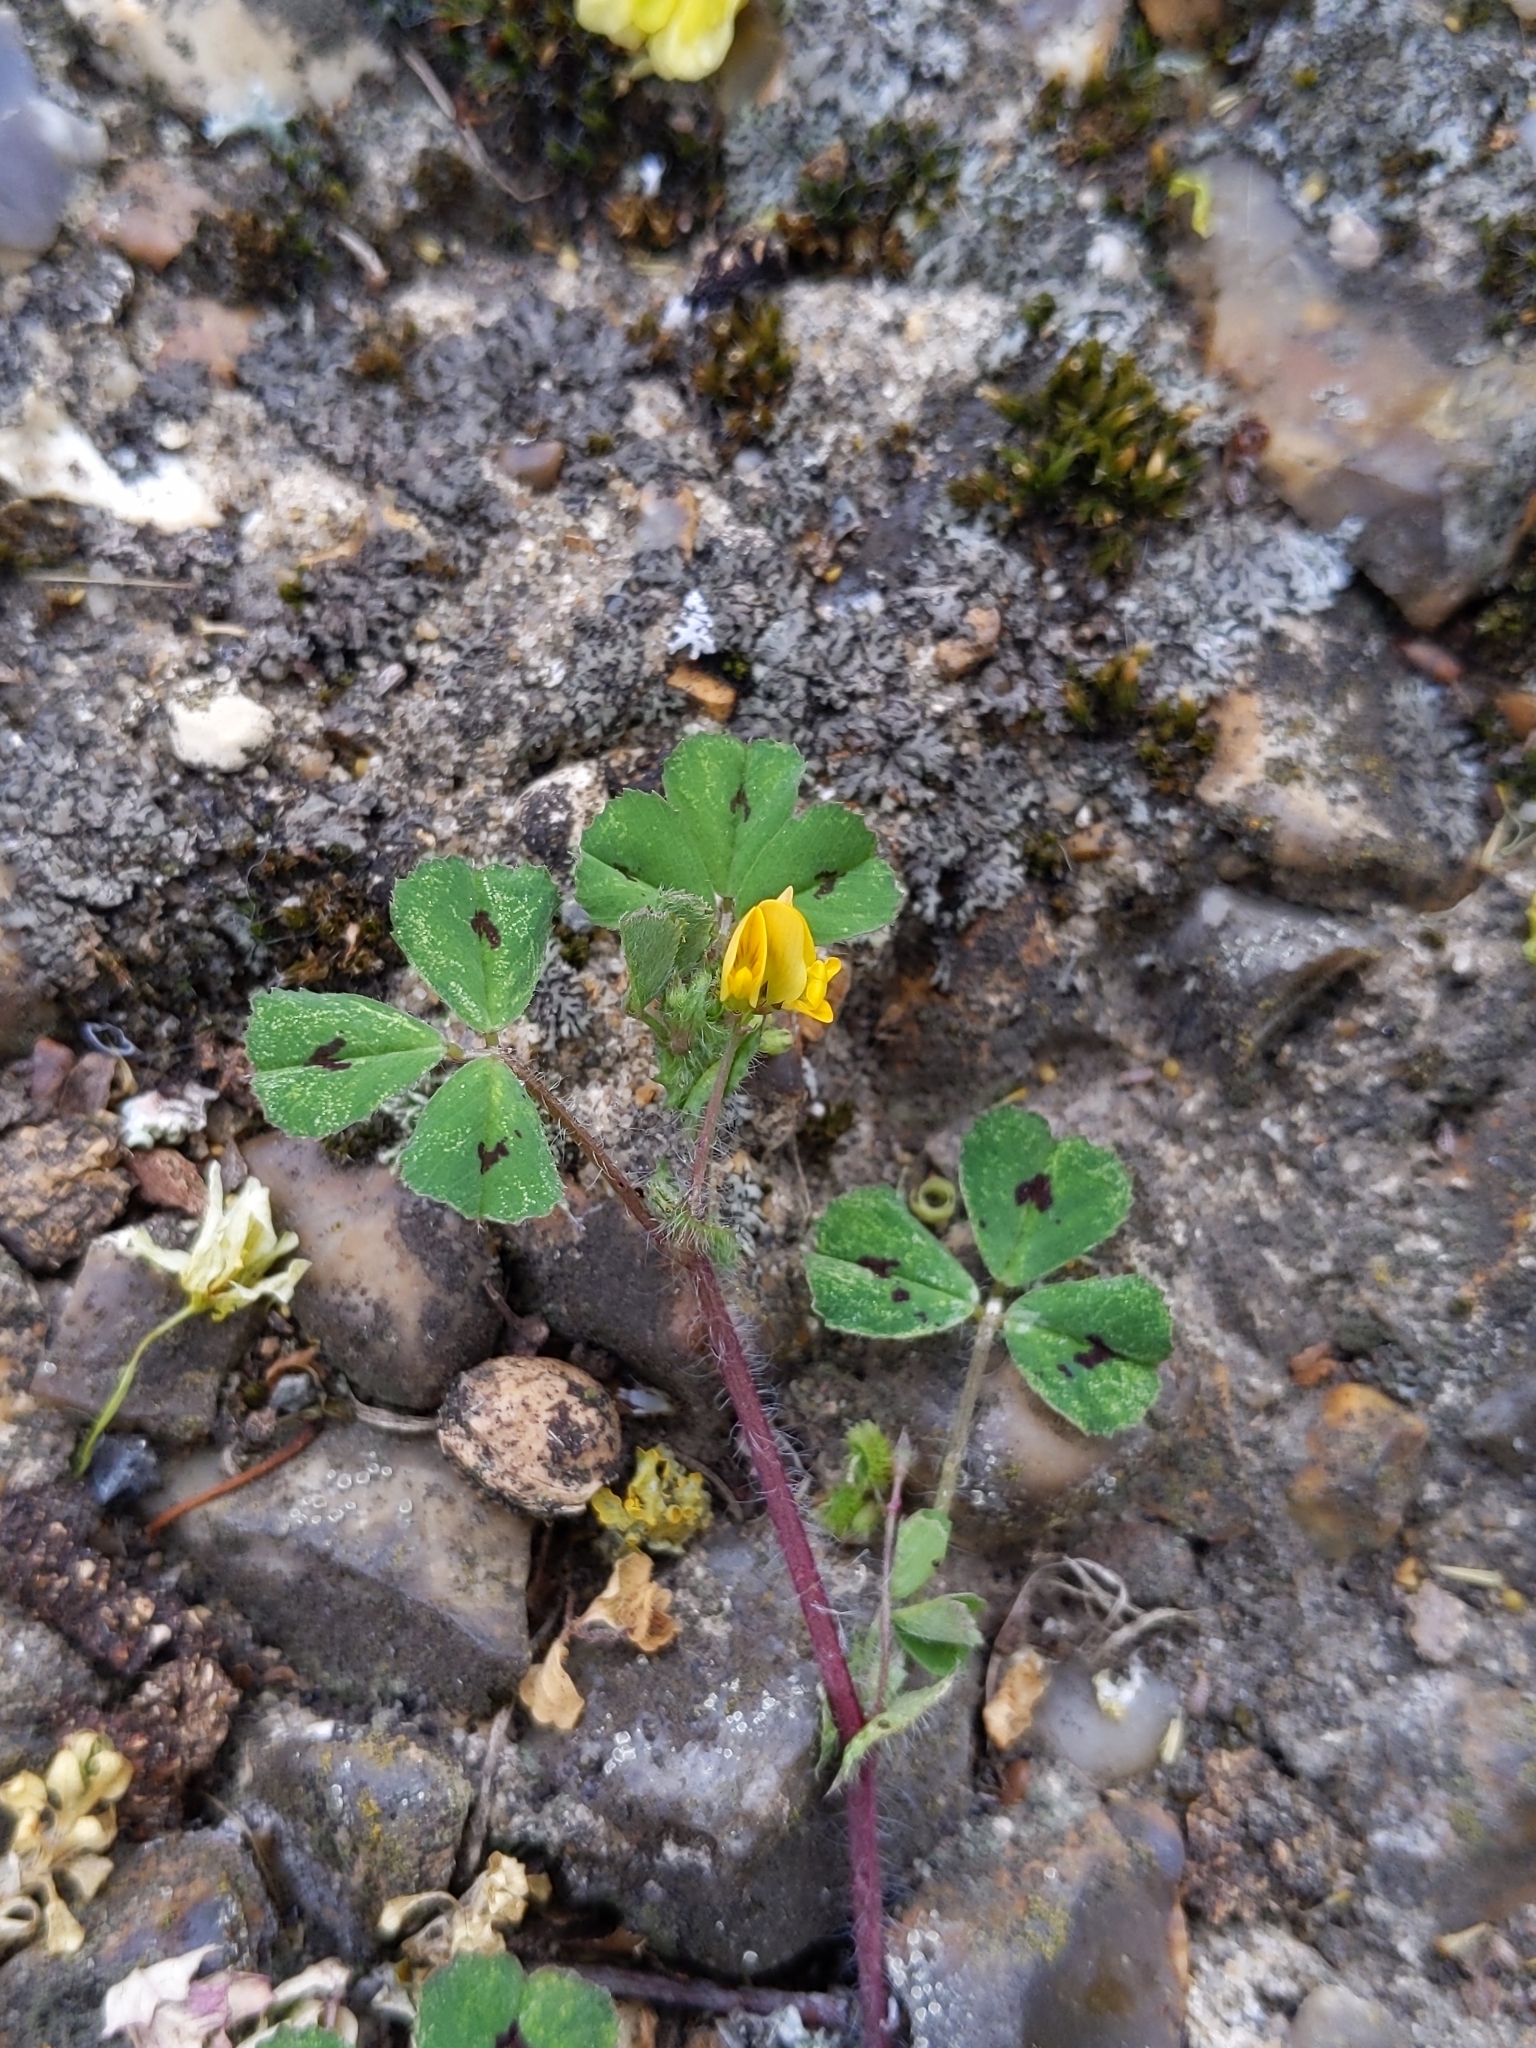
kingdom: Plantae
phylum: Tracheophyta
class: Magnoliopsida
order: Fabales
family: Fabaceae
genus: Medicago
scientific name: Medicago arabica
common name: Spotted medick
